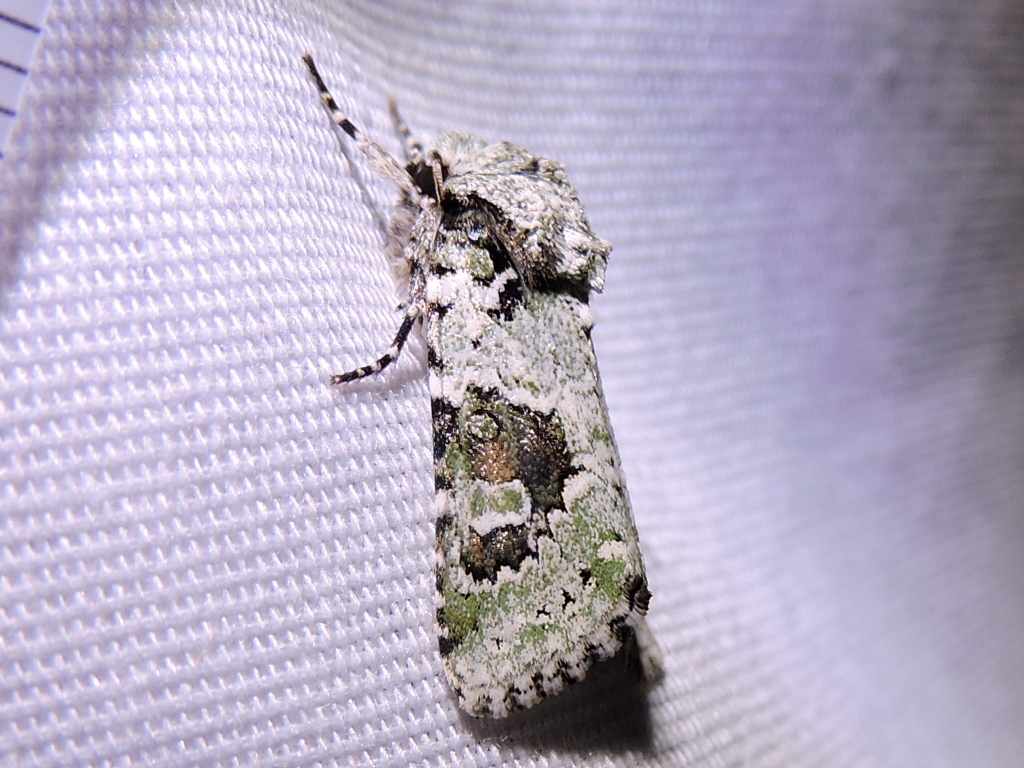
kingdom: Animalia
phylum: Arthropoda
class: Insecta
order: Lepidoptera
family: Noctuidae
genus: Lacinipolia
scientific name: Lacinipolia laudabilis
